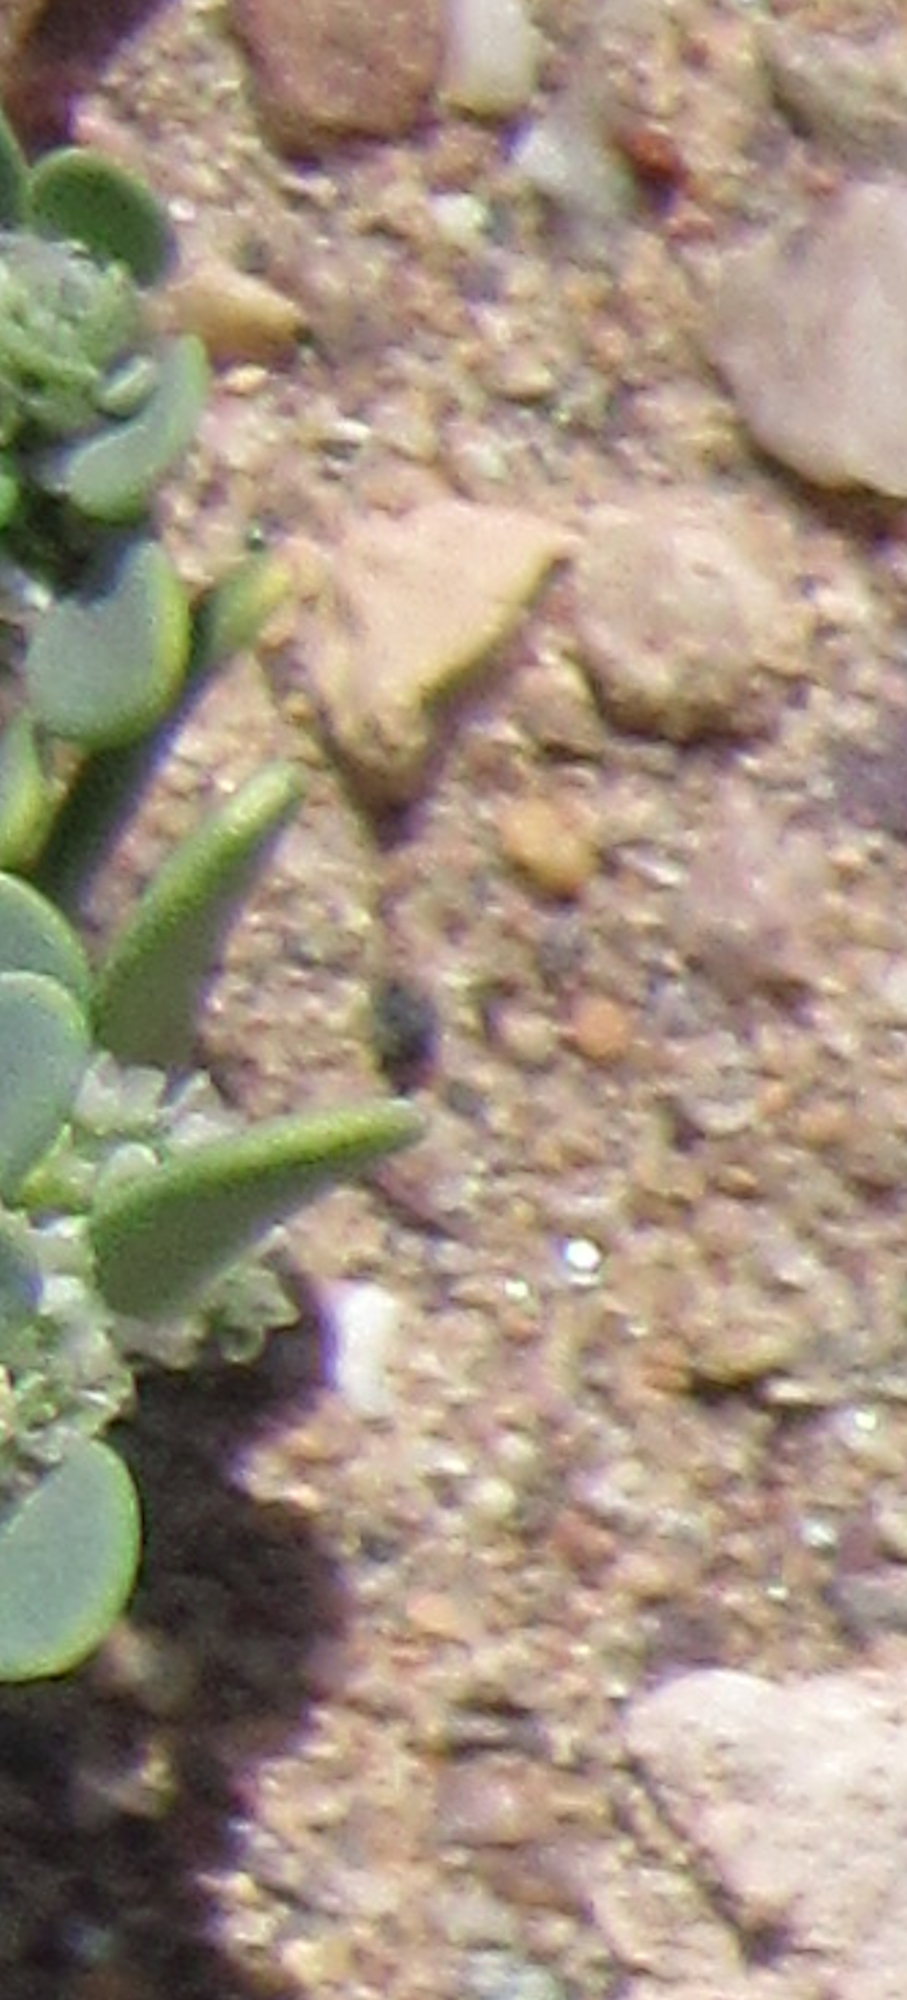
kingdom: Plantae
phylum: Tracheophyta
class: Magnoliopsida
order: Caryophyllales
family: Caryophyllaceae
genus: Achyronychia
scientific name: Achyronychia cooperi
